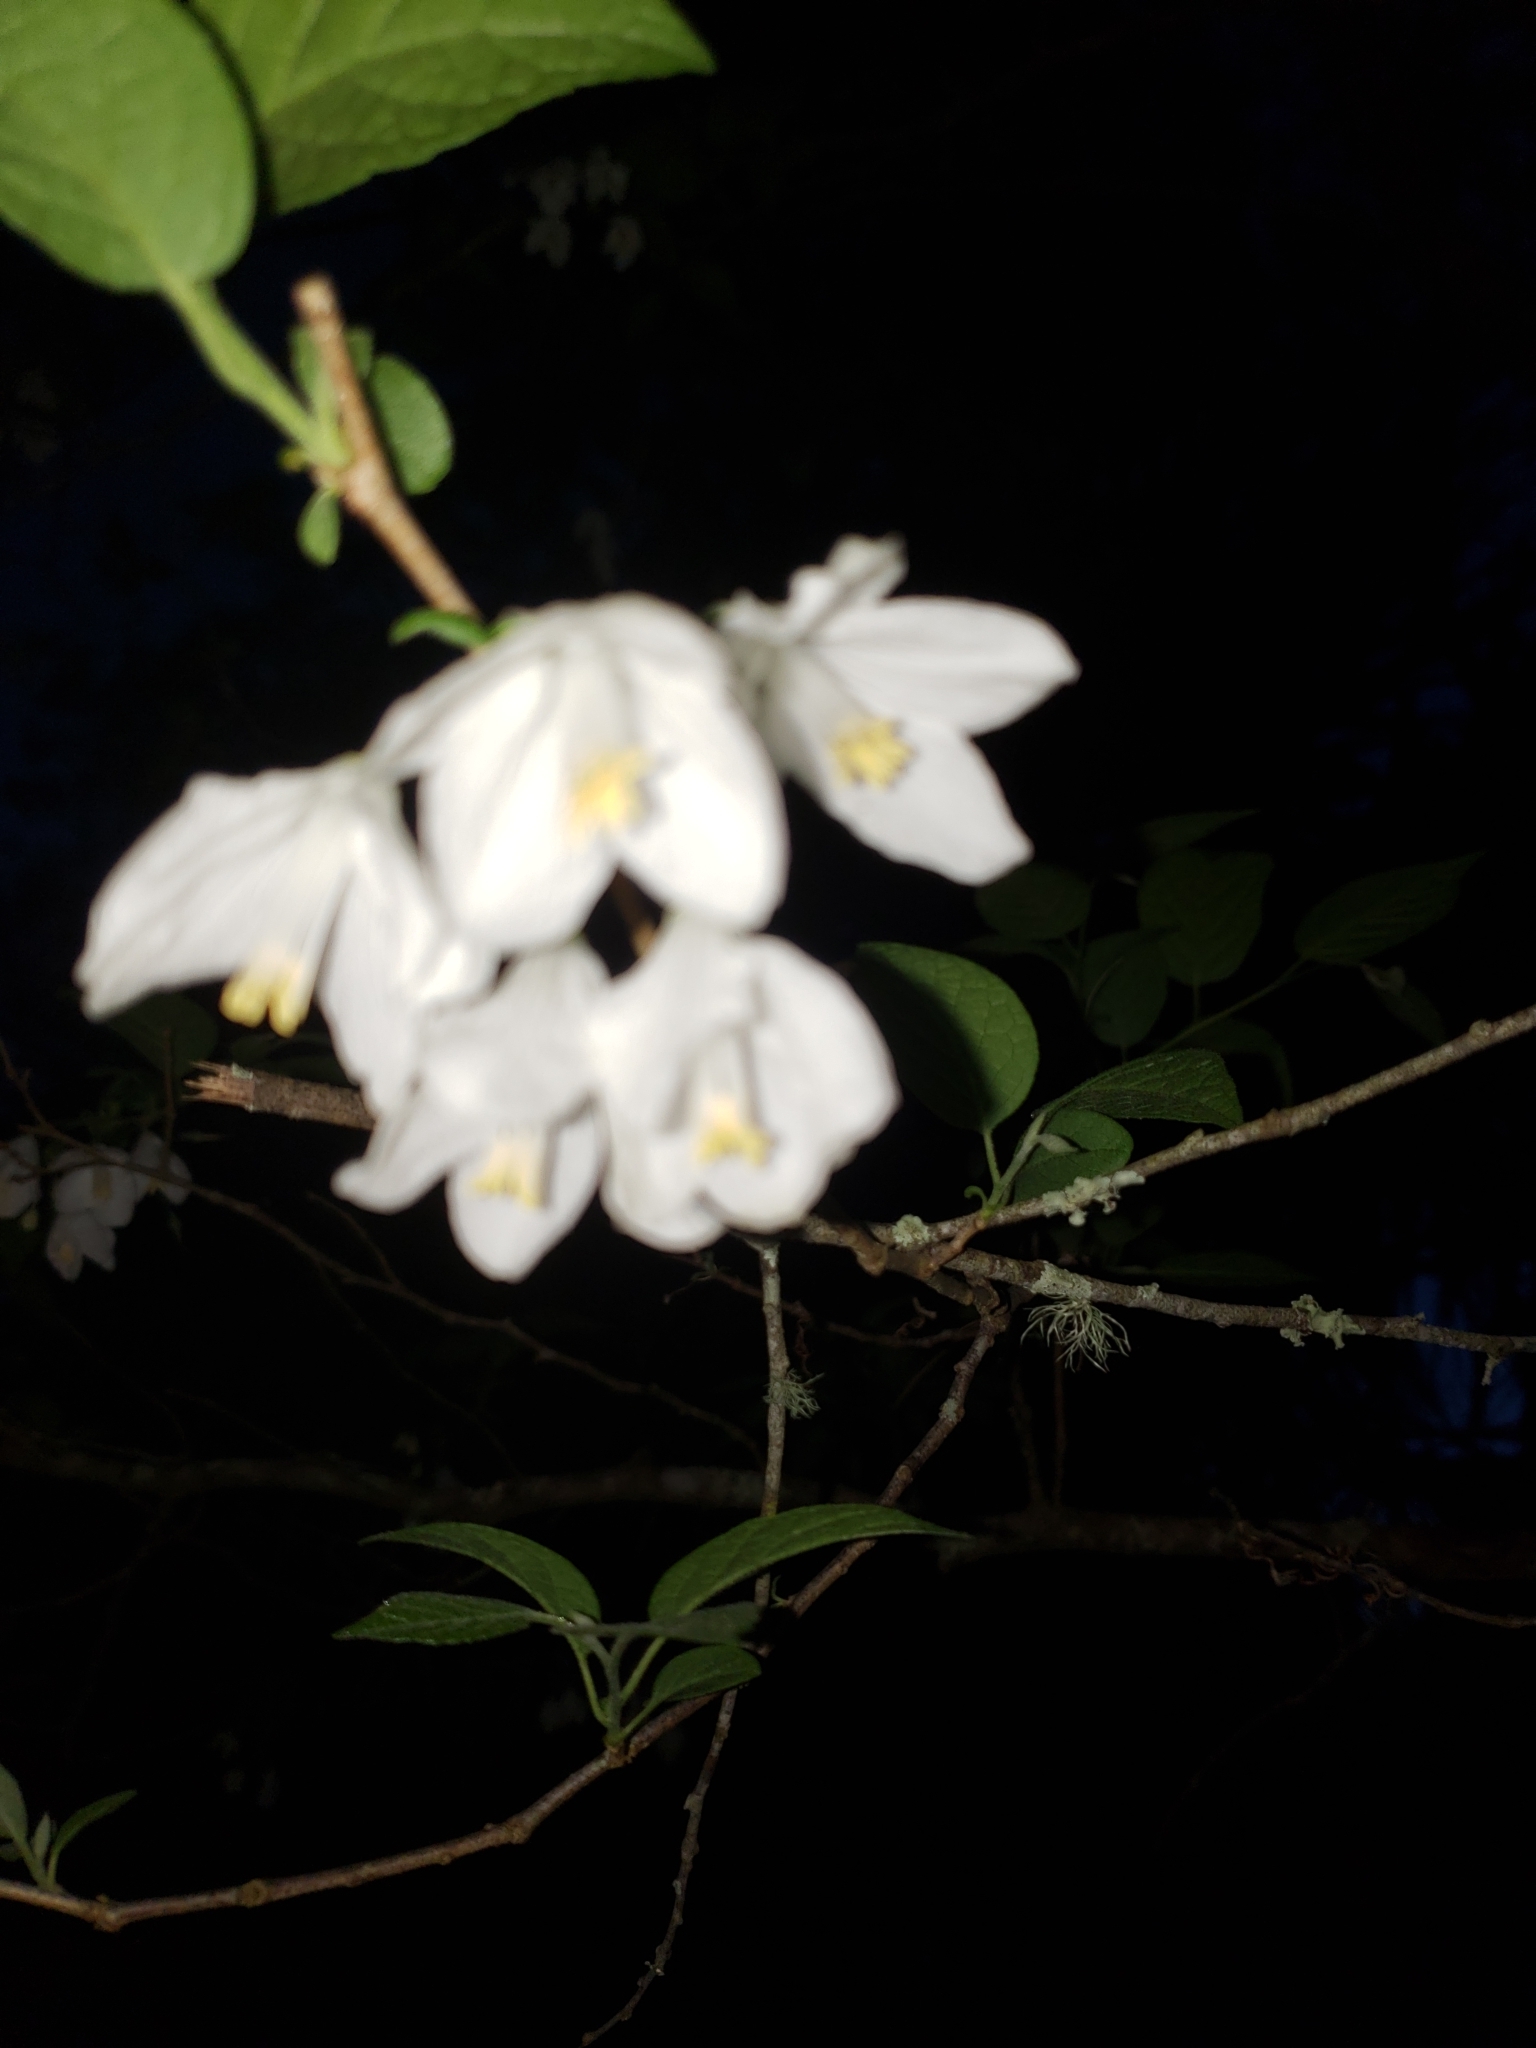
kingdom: Plantae
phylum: Tracheophyta
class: Magnoliopsida
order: Ericales
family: Styracaceae
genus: Halesia
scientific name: Halesia diptera
